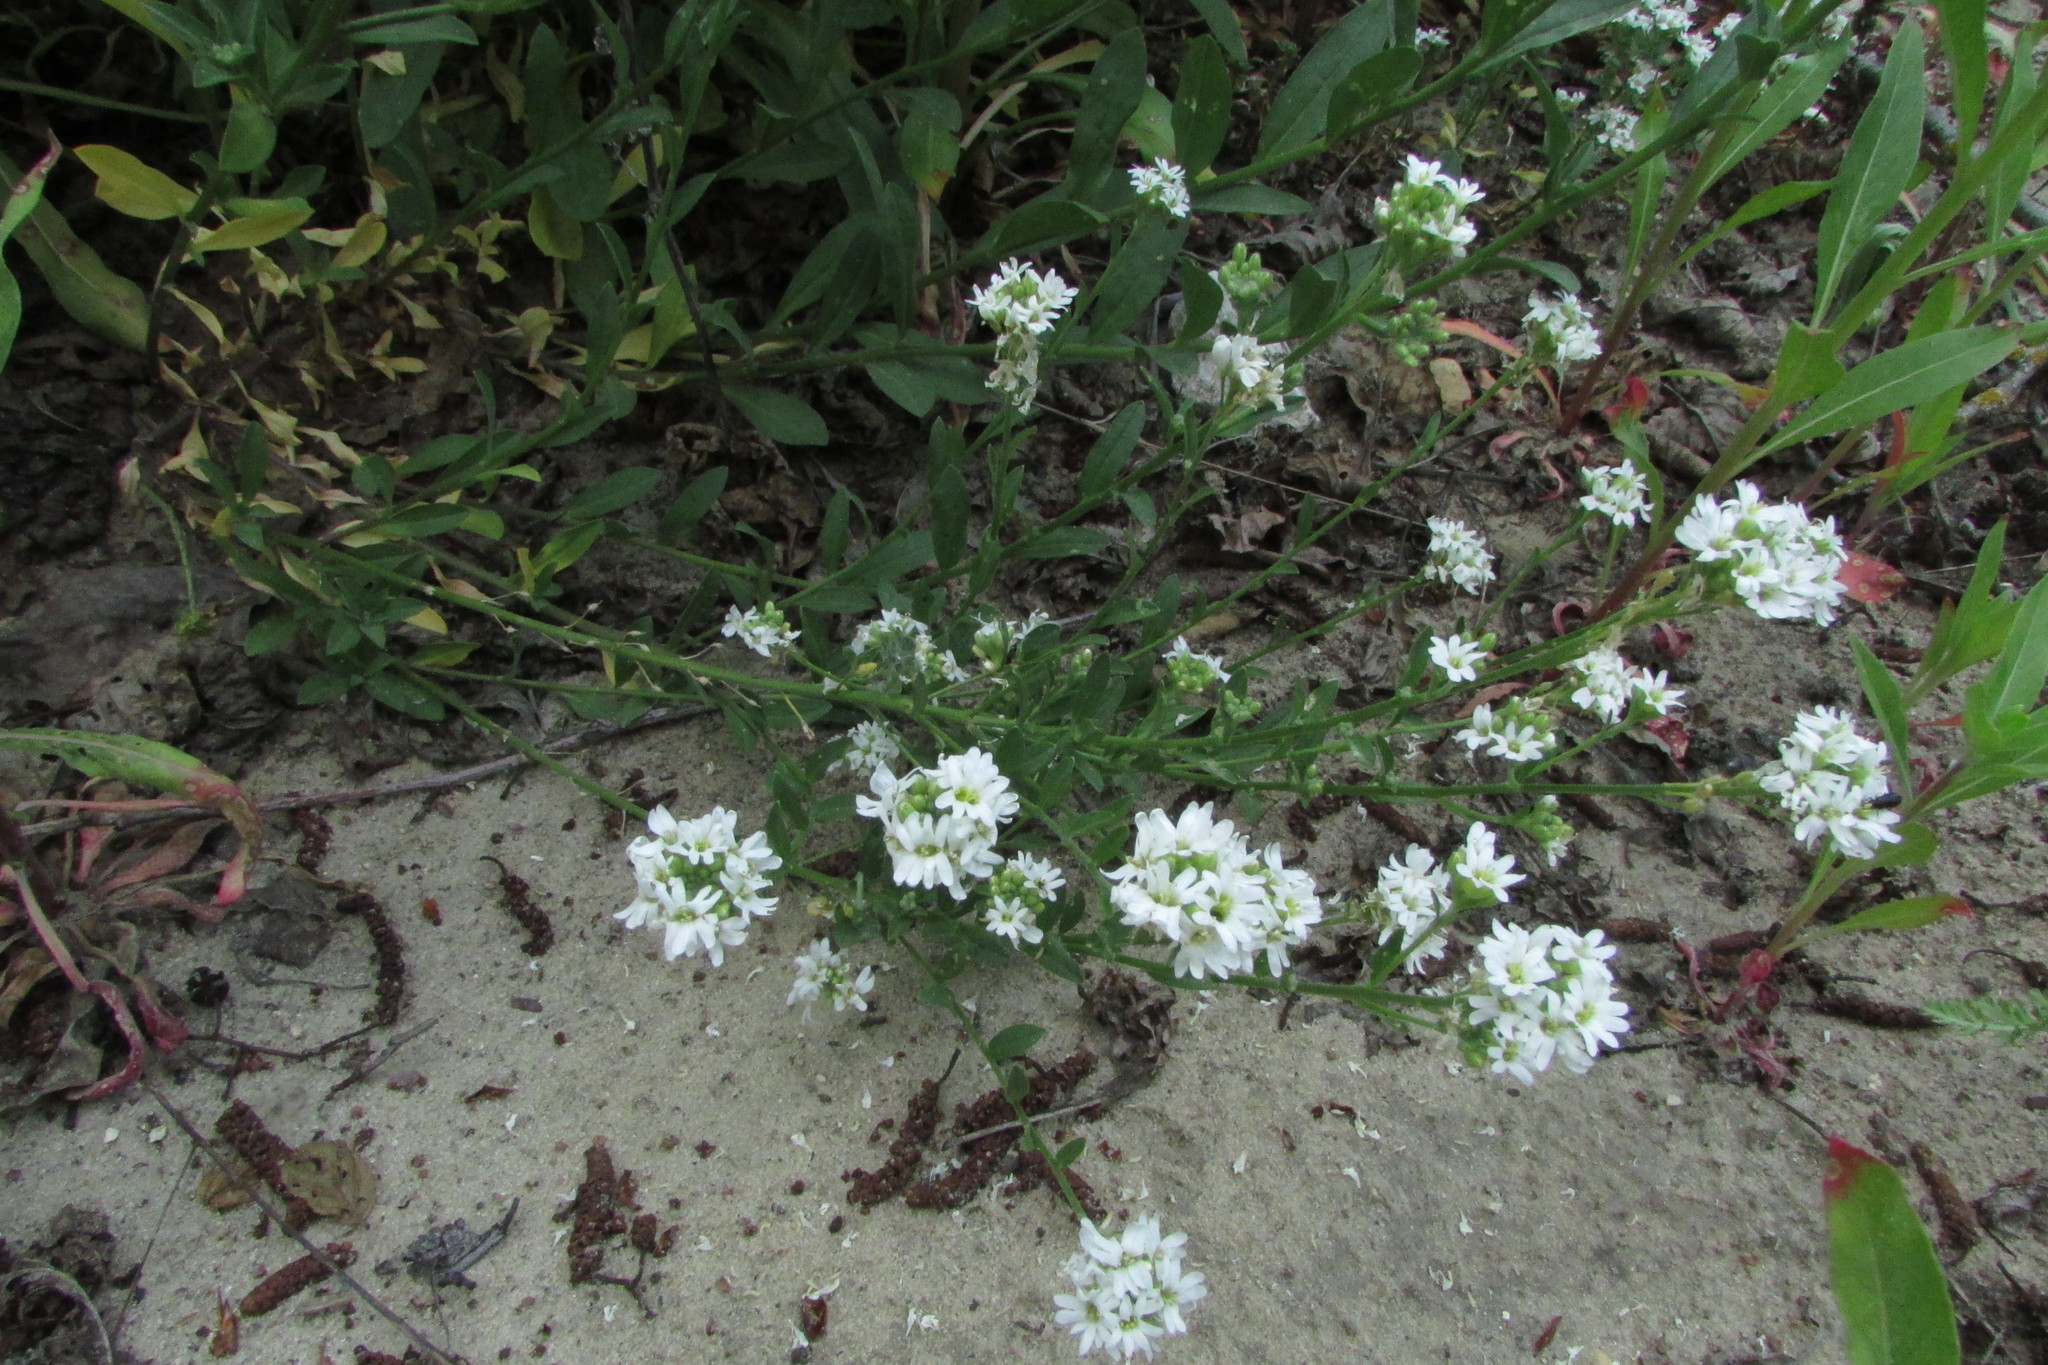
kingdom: Plantae
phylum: Tracheophyta
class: Magnoliopsida
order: Brassicales
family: Brassicaceae
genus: Berteroa
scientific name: Berteroa incana
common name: Hoary alison
